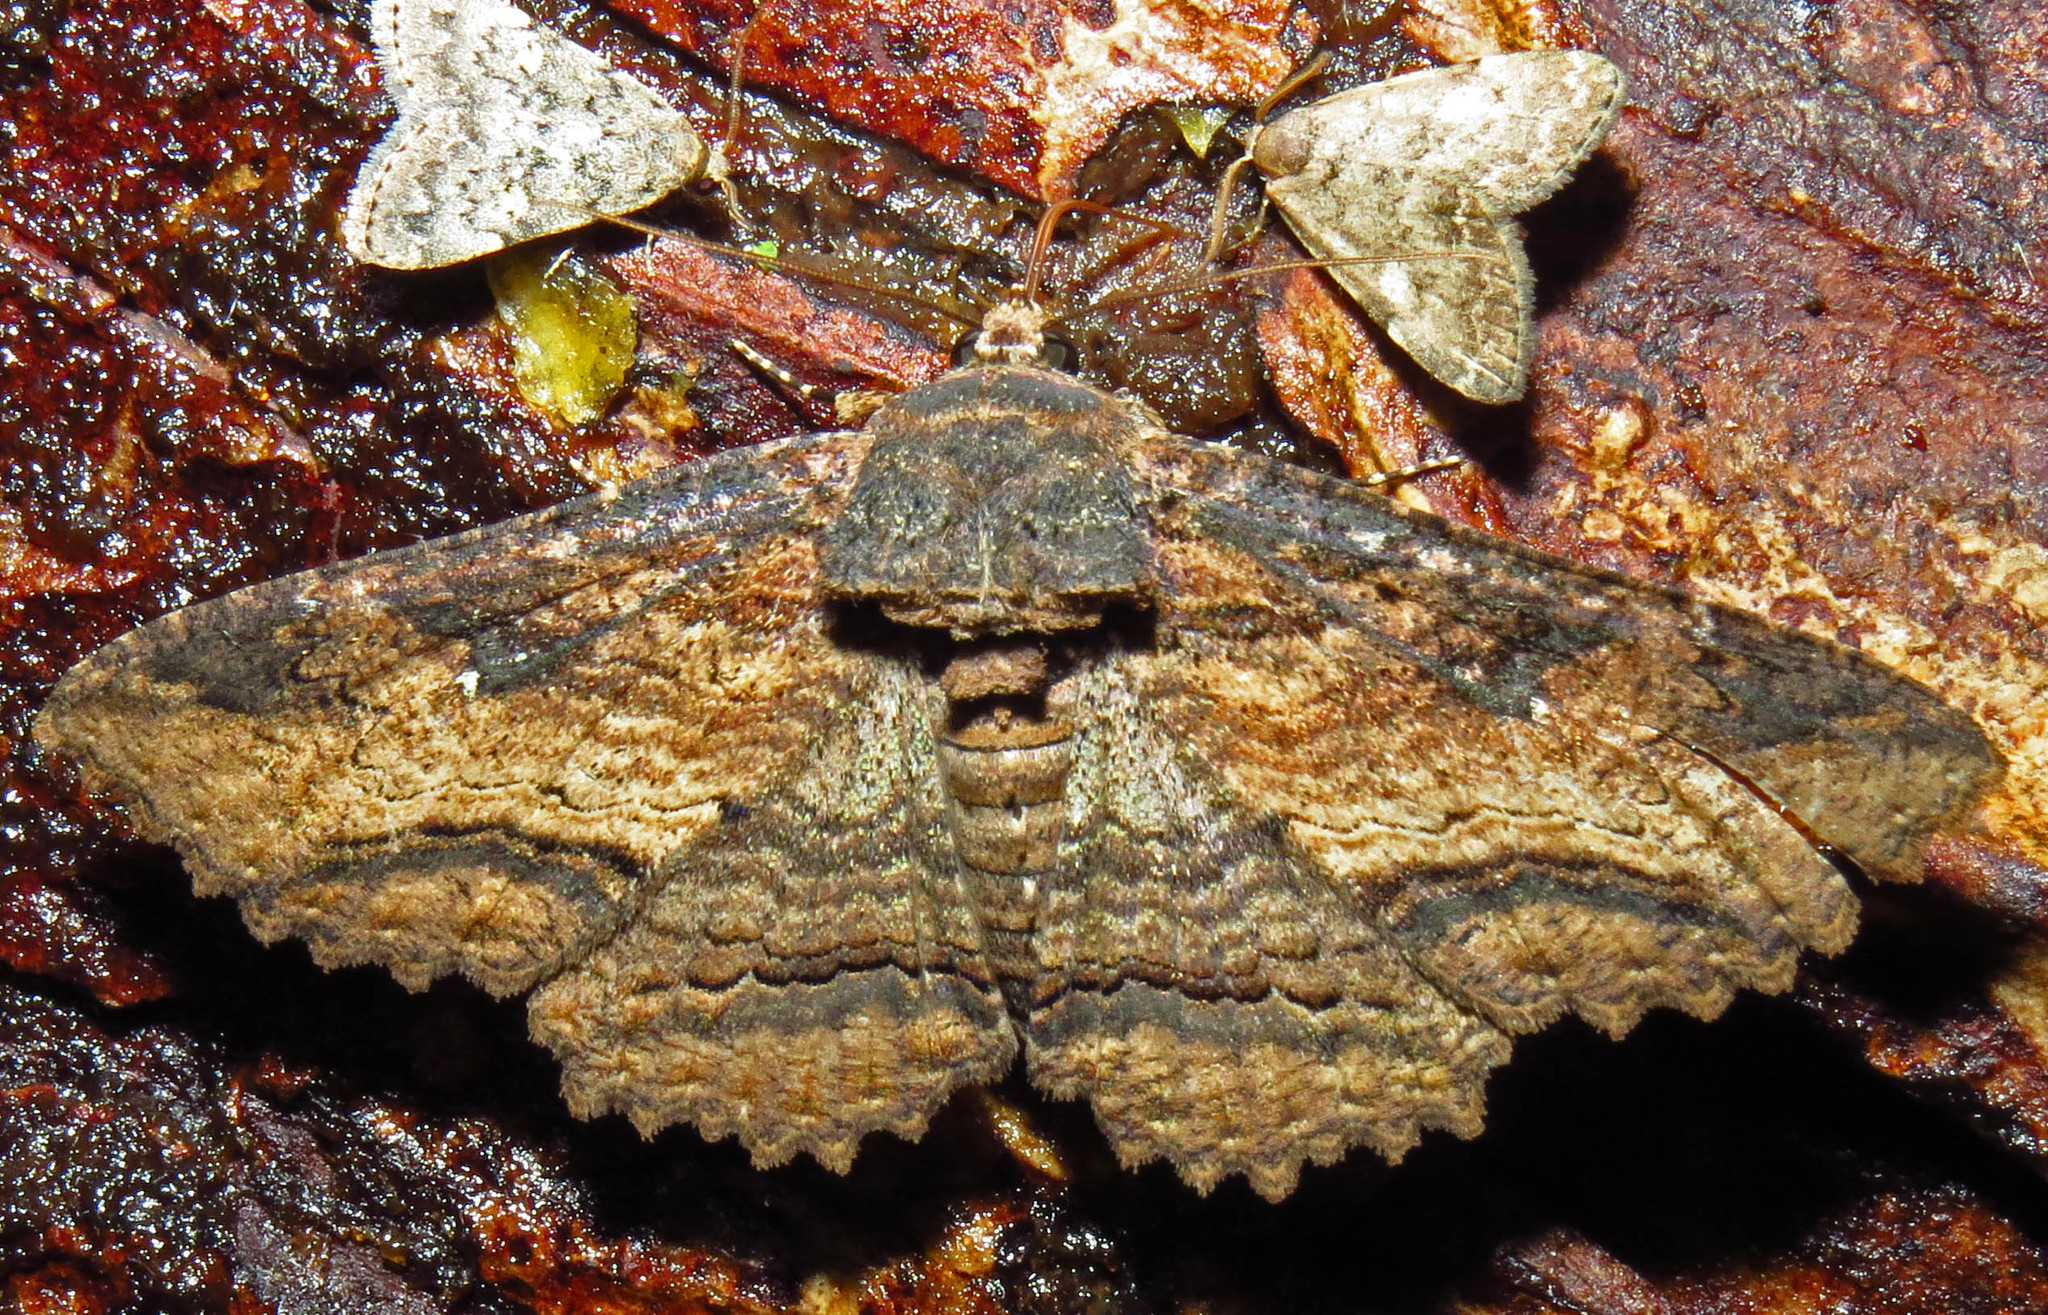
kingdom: Animalia
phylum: Arthropoda
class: Insecta
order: Lepidoptera
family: Erebidae
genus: Zale
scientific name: Zale lunata
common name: Lunate zale moth
